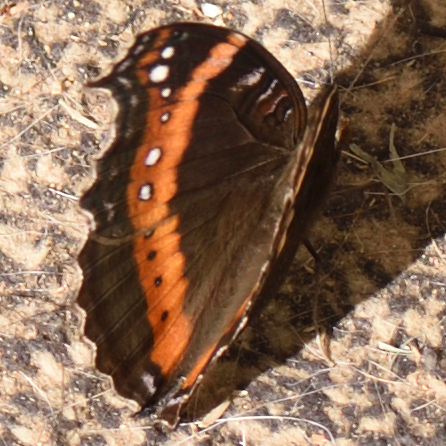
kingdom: Animalia
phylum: Arthropoda
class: Insecta
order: Lepidoptera
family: Nymphalidae
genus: Junonia
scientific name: Junonia archesia
